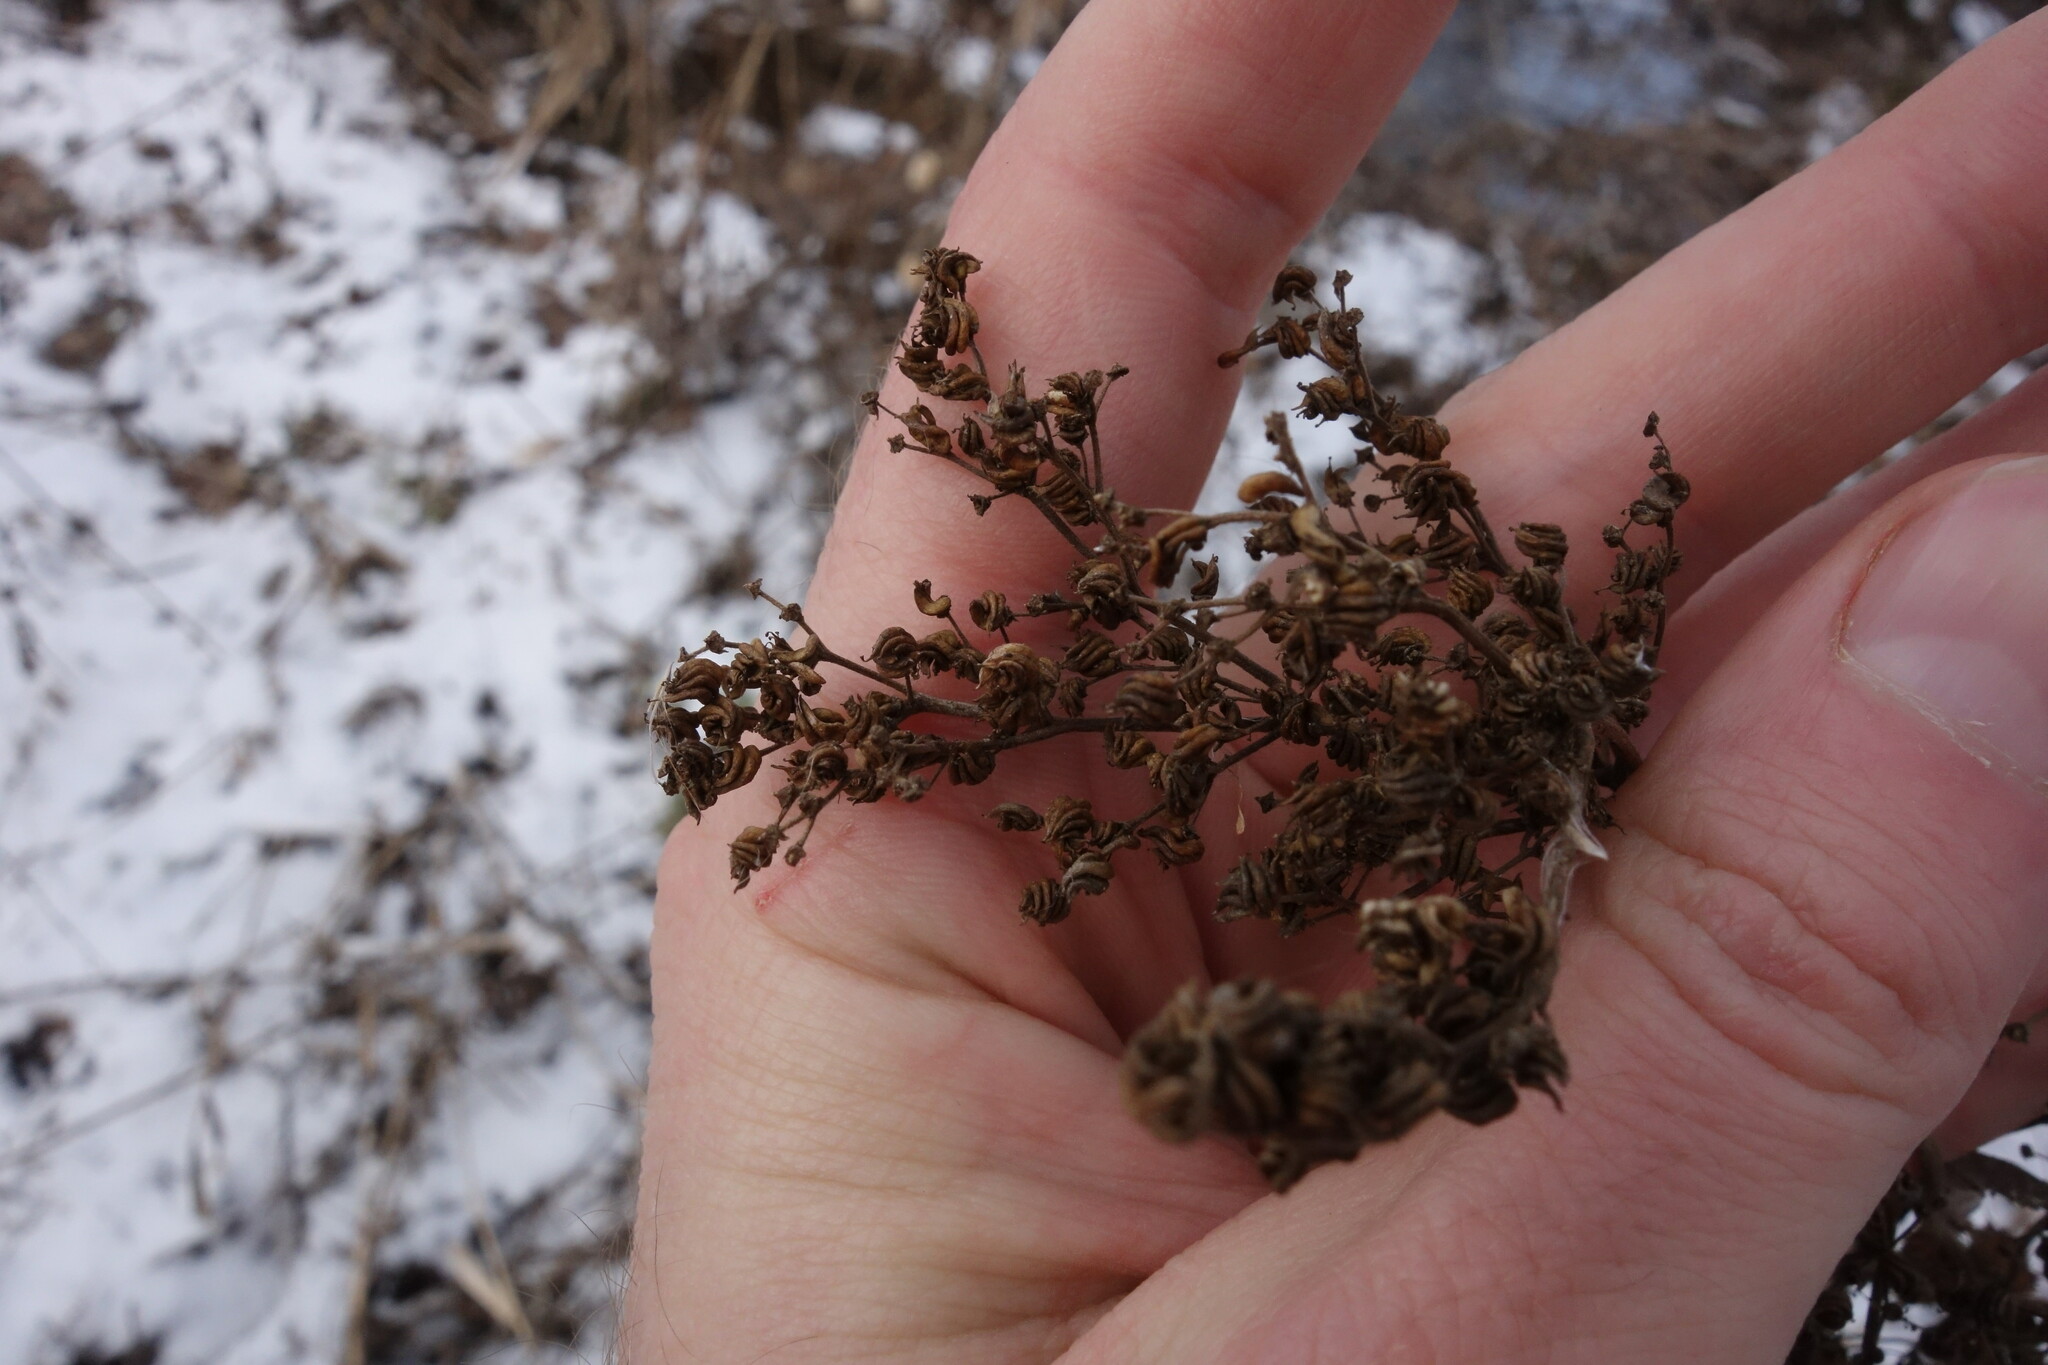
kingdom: Plantae
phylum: Tracheophyta
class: Magnoliopsida
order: Rosales
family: Rosaceae
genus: Filipendula
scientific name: Filipendula ulmaria
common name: Meadowsweet
